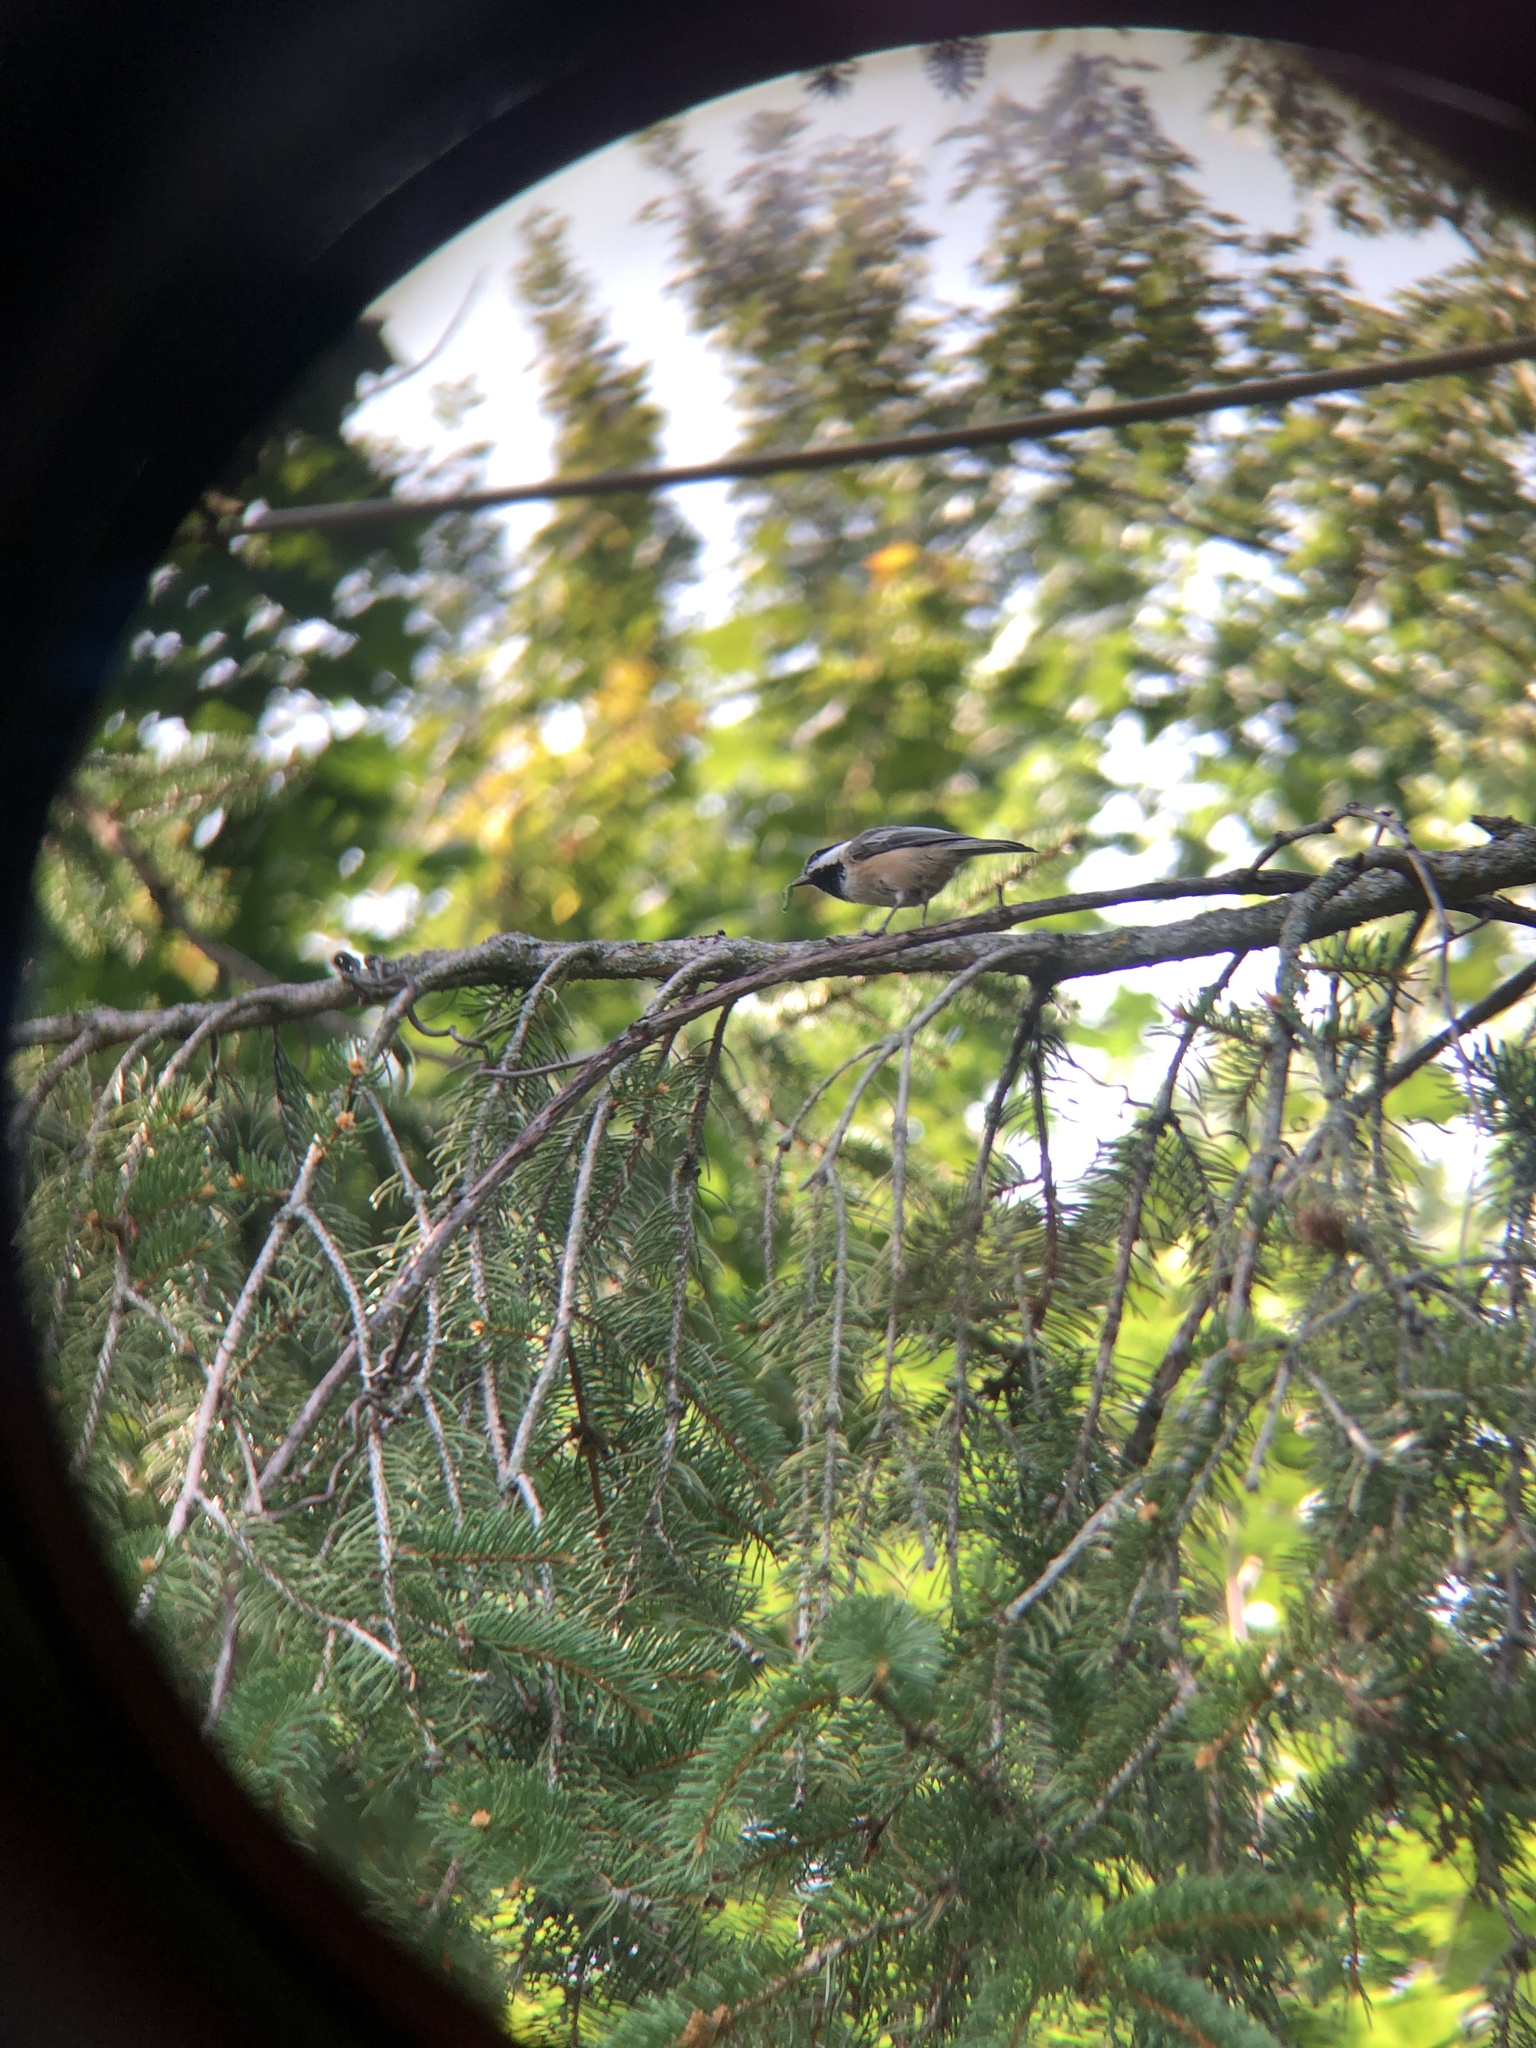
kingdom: Animalia
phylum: Chordata
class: Aves
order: Passeriformes
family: Paridae
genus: Poecile
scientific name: Poecile atricapillus
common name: Black-capped chickadee
